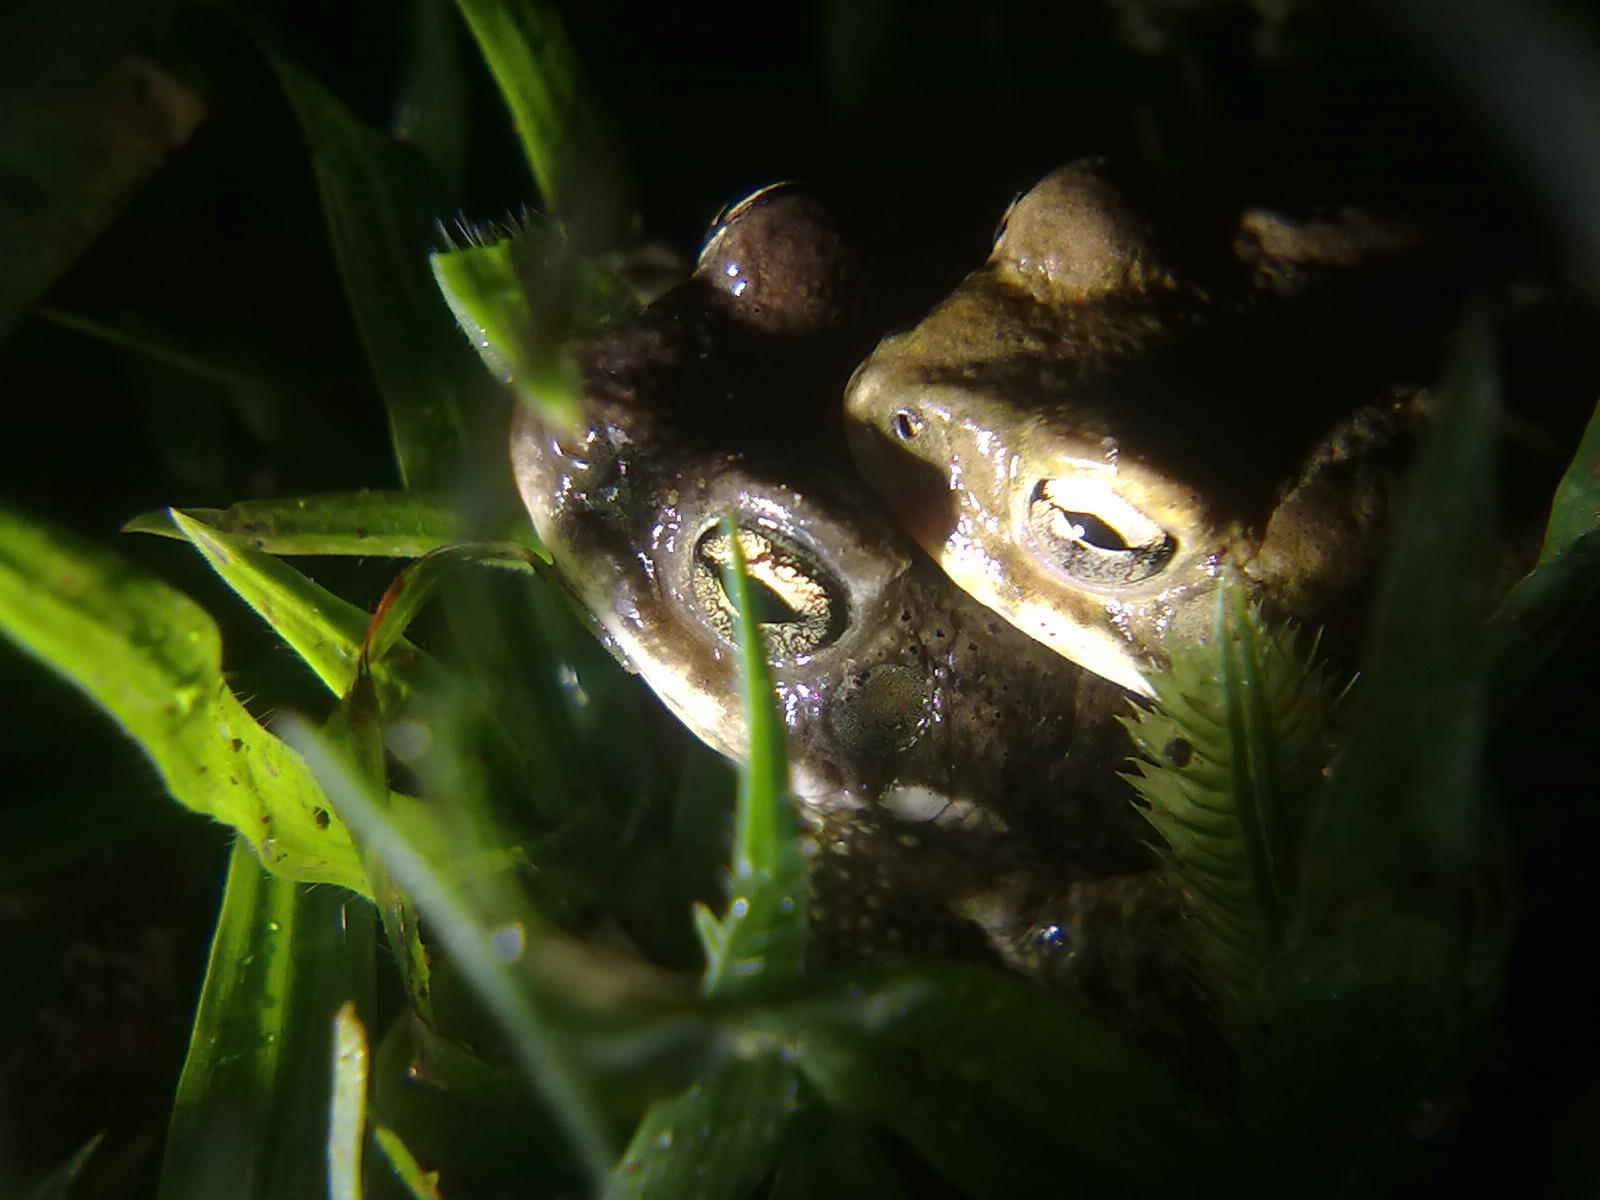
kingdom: Animalia
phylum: Chordata
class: Amphibia
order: Anura
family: Bufonidae
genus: Duttaphrynus
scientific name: Duttaphrynus melanostictus
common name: Common sunda toad
